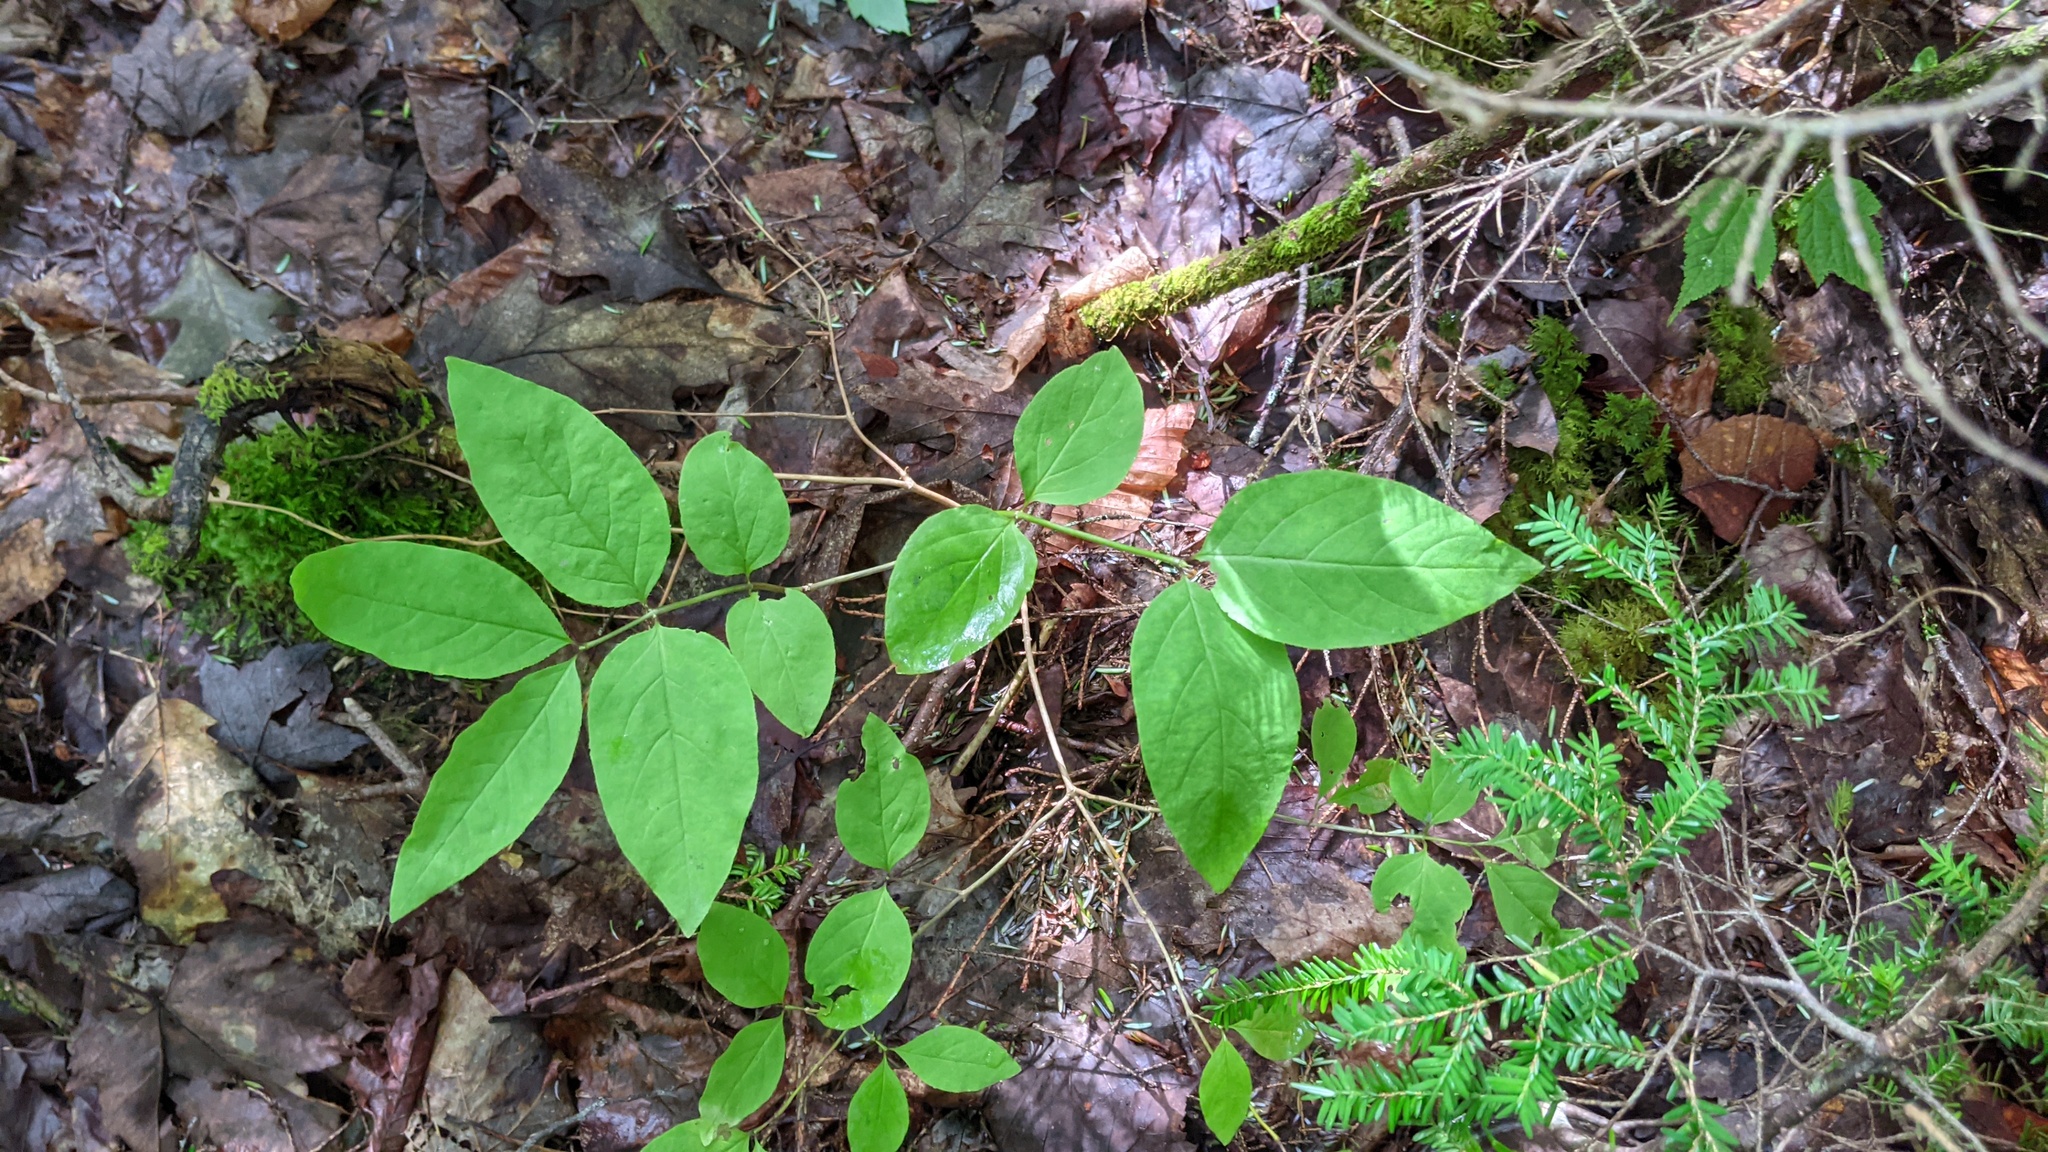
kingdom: Plantae
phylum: Tracheophyta
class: Magnoliopsida
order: Dipsacales
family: Caprifoliaceae
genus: Lonicera
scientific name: Lonicera canadensis
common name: American fly-honeysuckle
